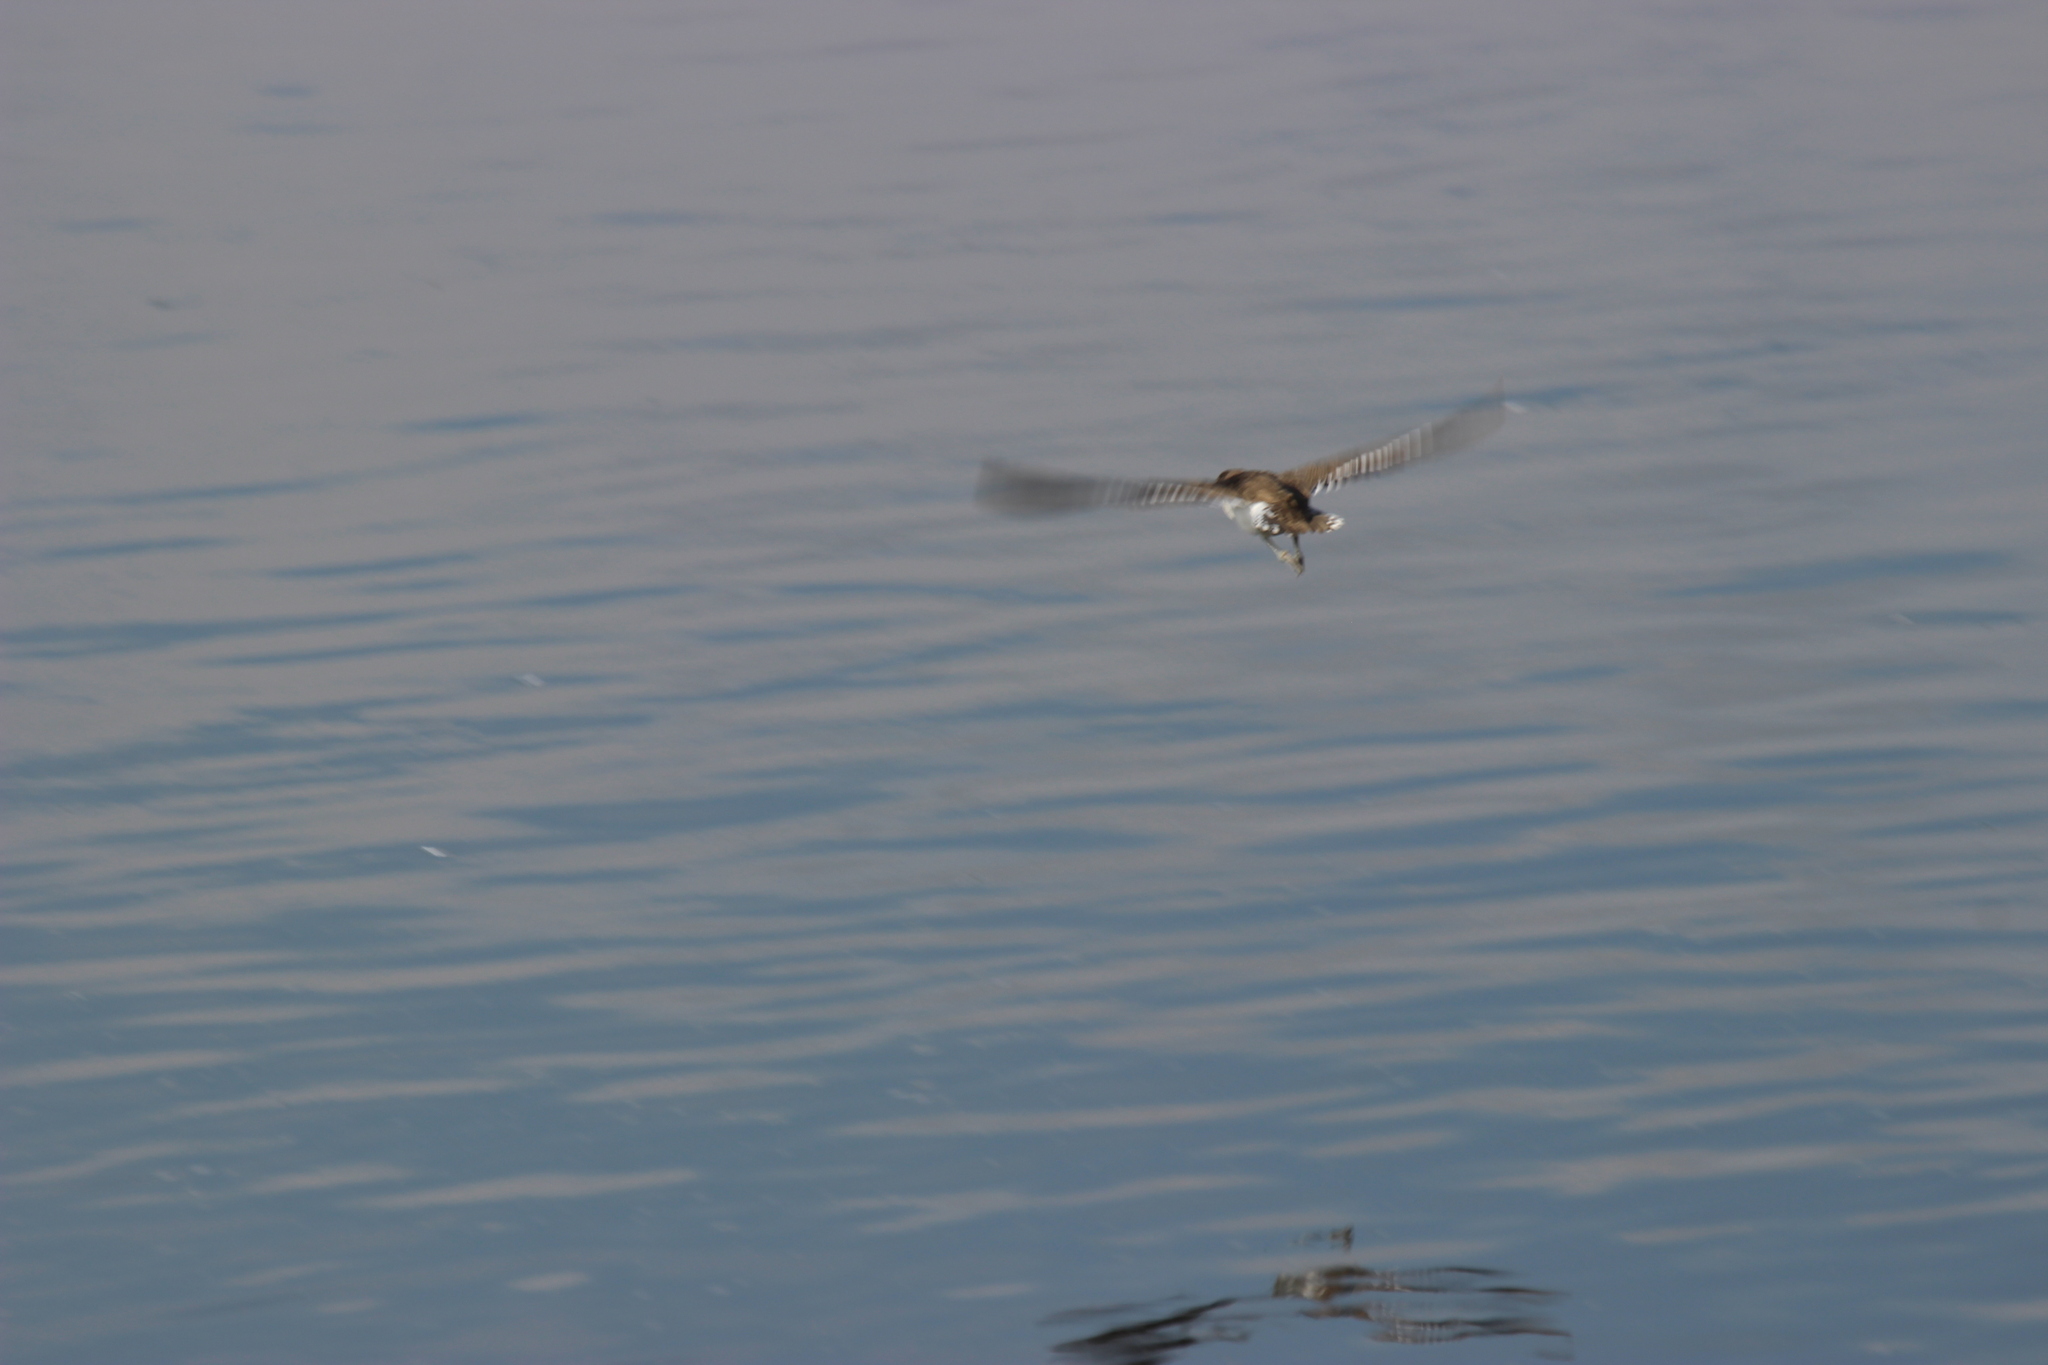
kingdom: Animalia
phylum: Chordata
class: Aves
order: Charadriiformes
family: Scolopacidae
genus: Actitis
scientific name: Actitis hypoleucos
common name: Common sandpiper
